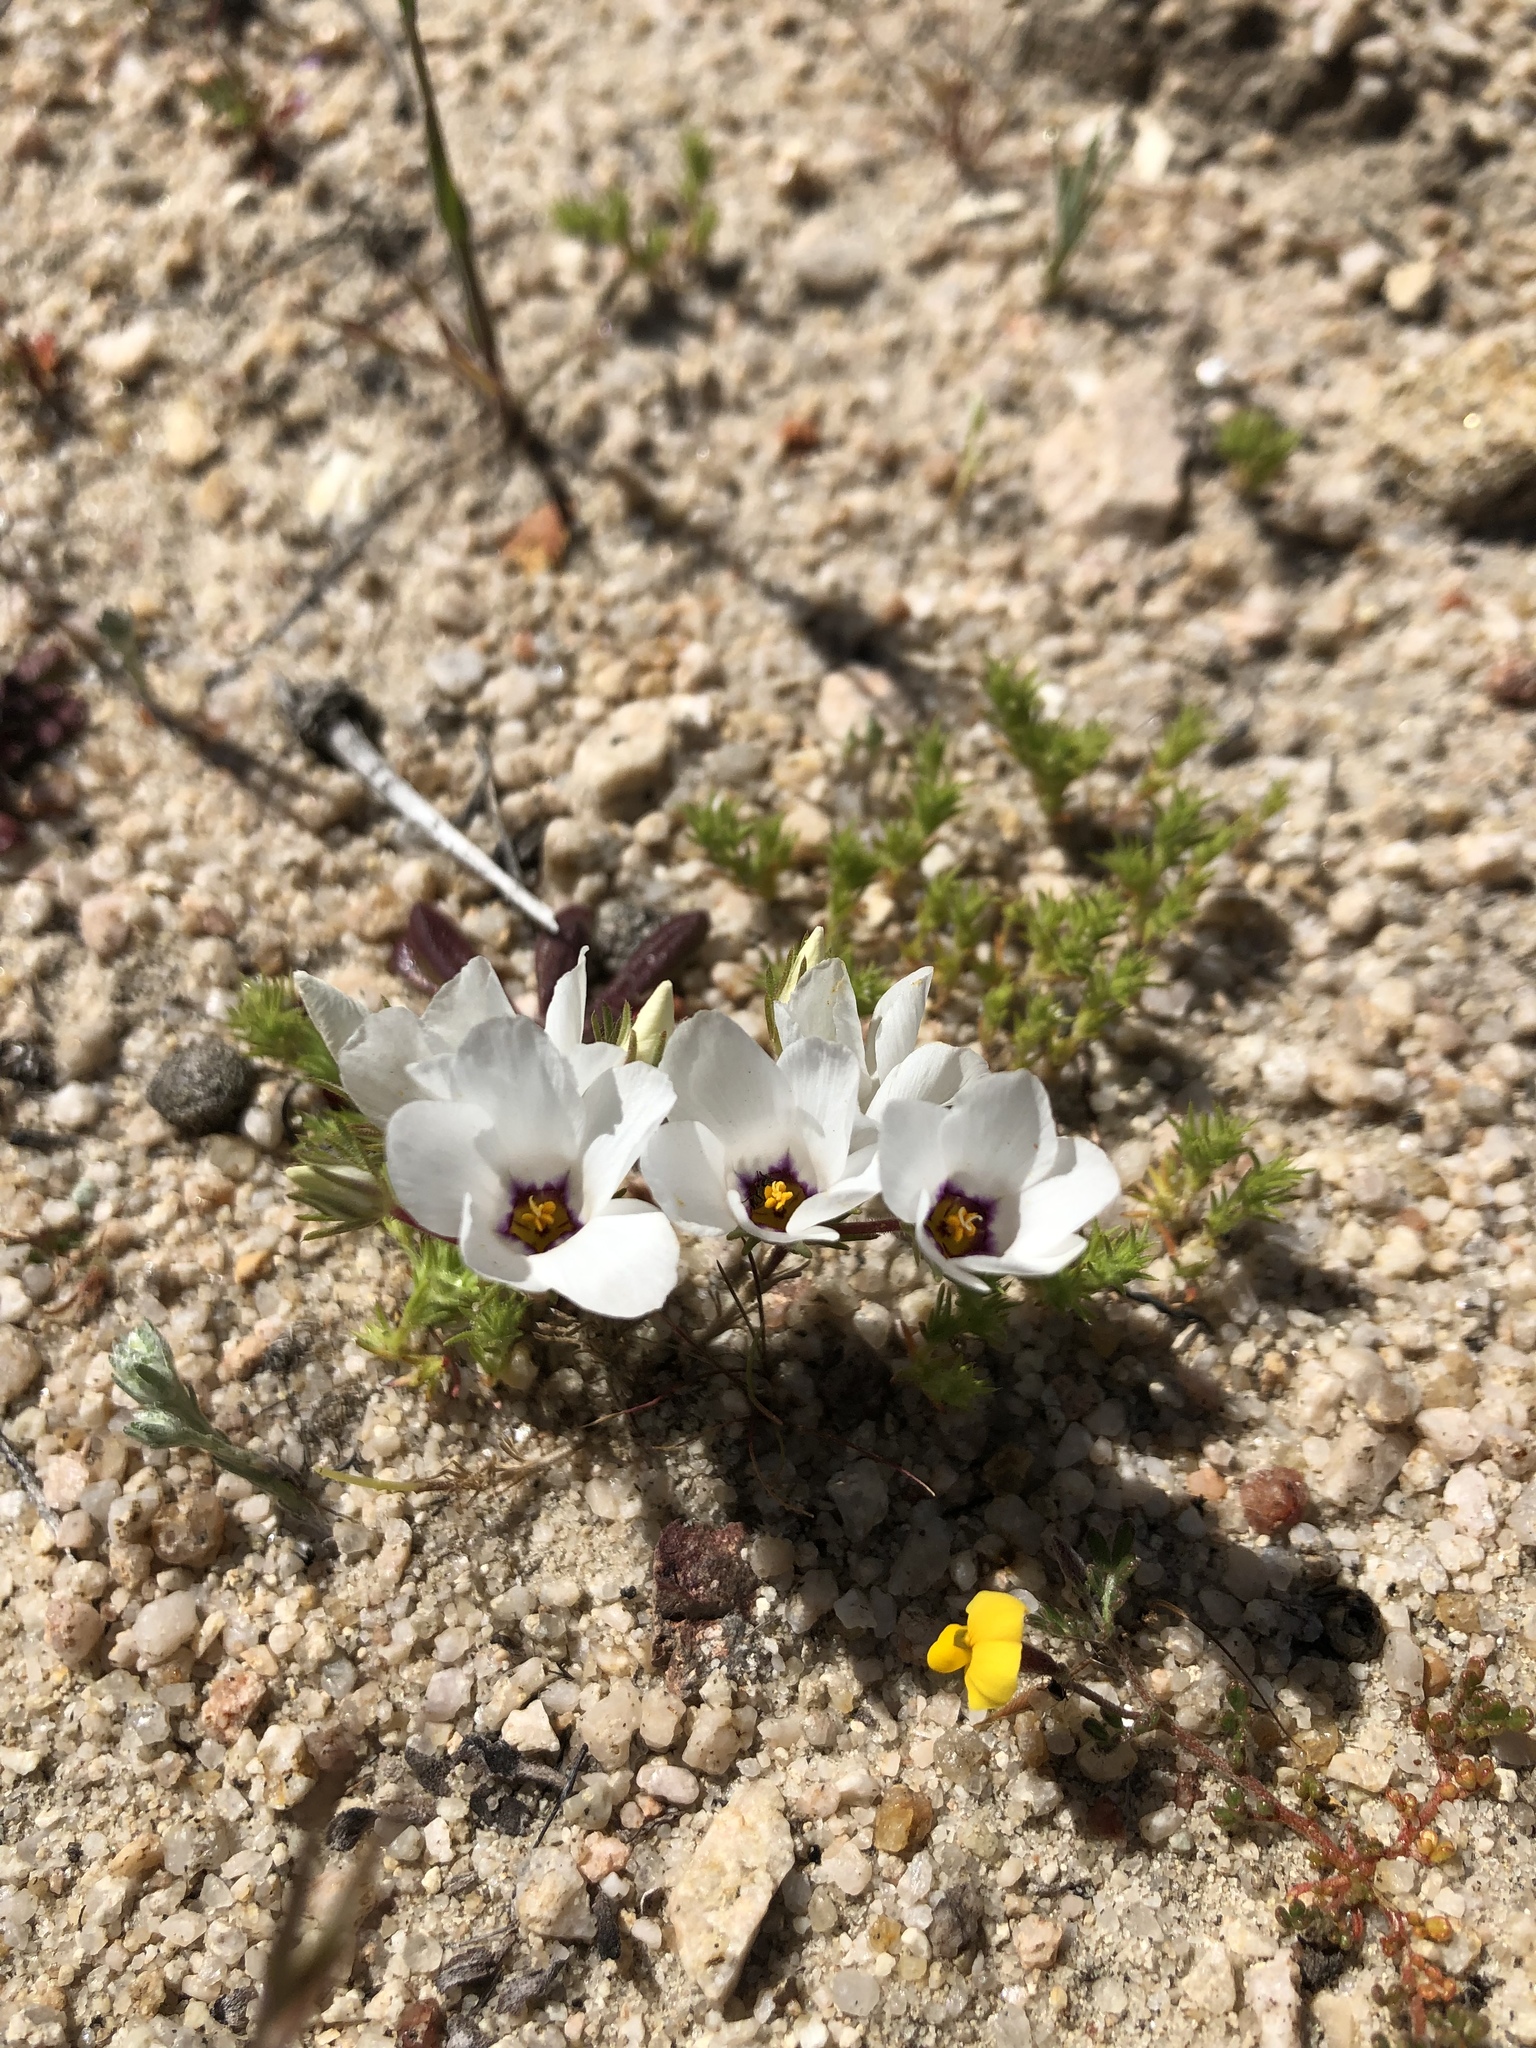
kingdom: Plantae
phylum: Tracheophyta
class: Magnoliopsida
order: Ericales
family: Polemoniaceae
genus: Linanthus
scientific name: Linanthus parryae
